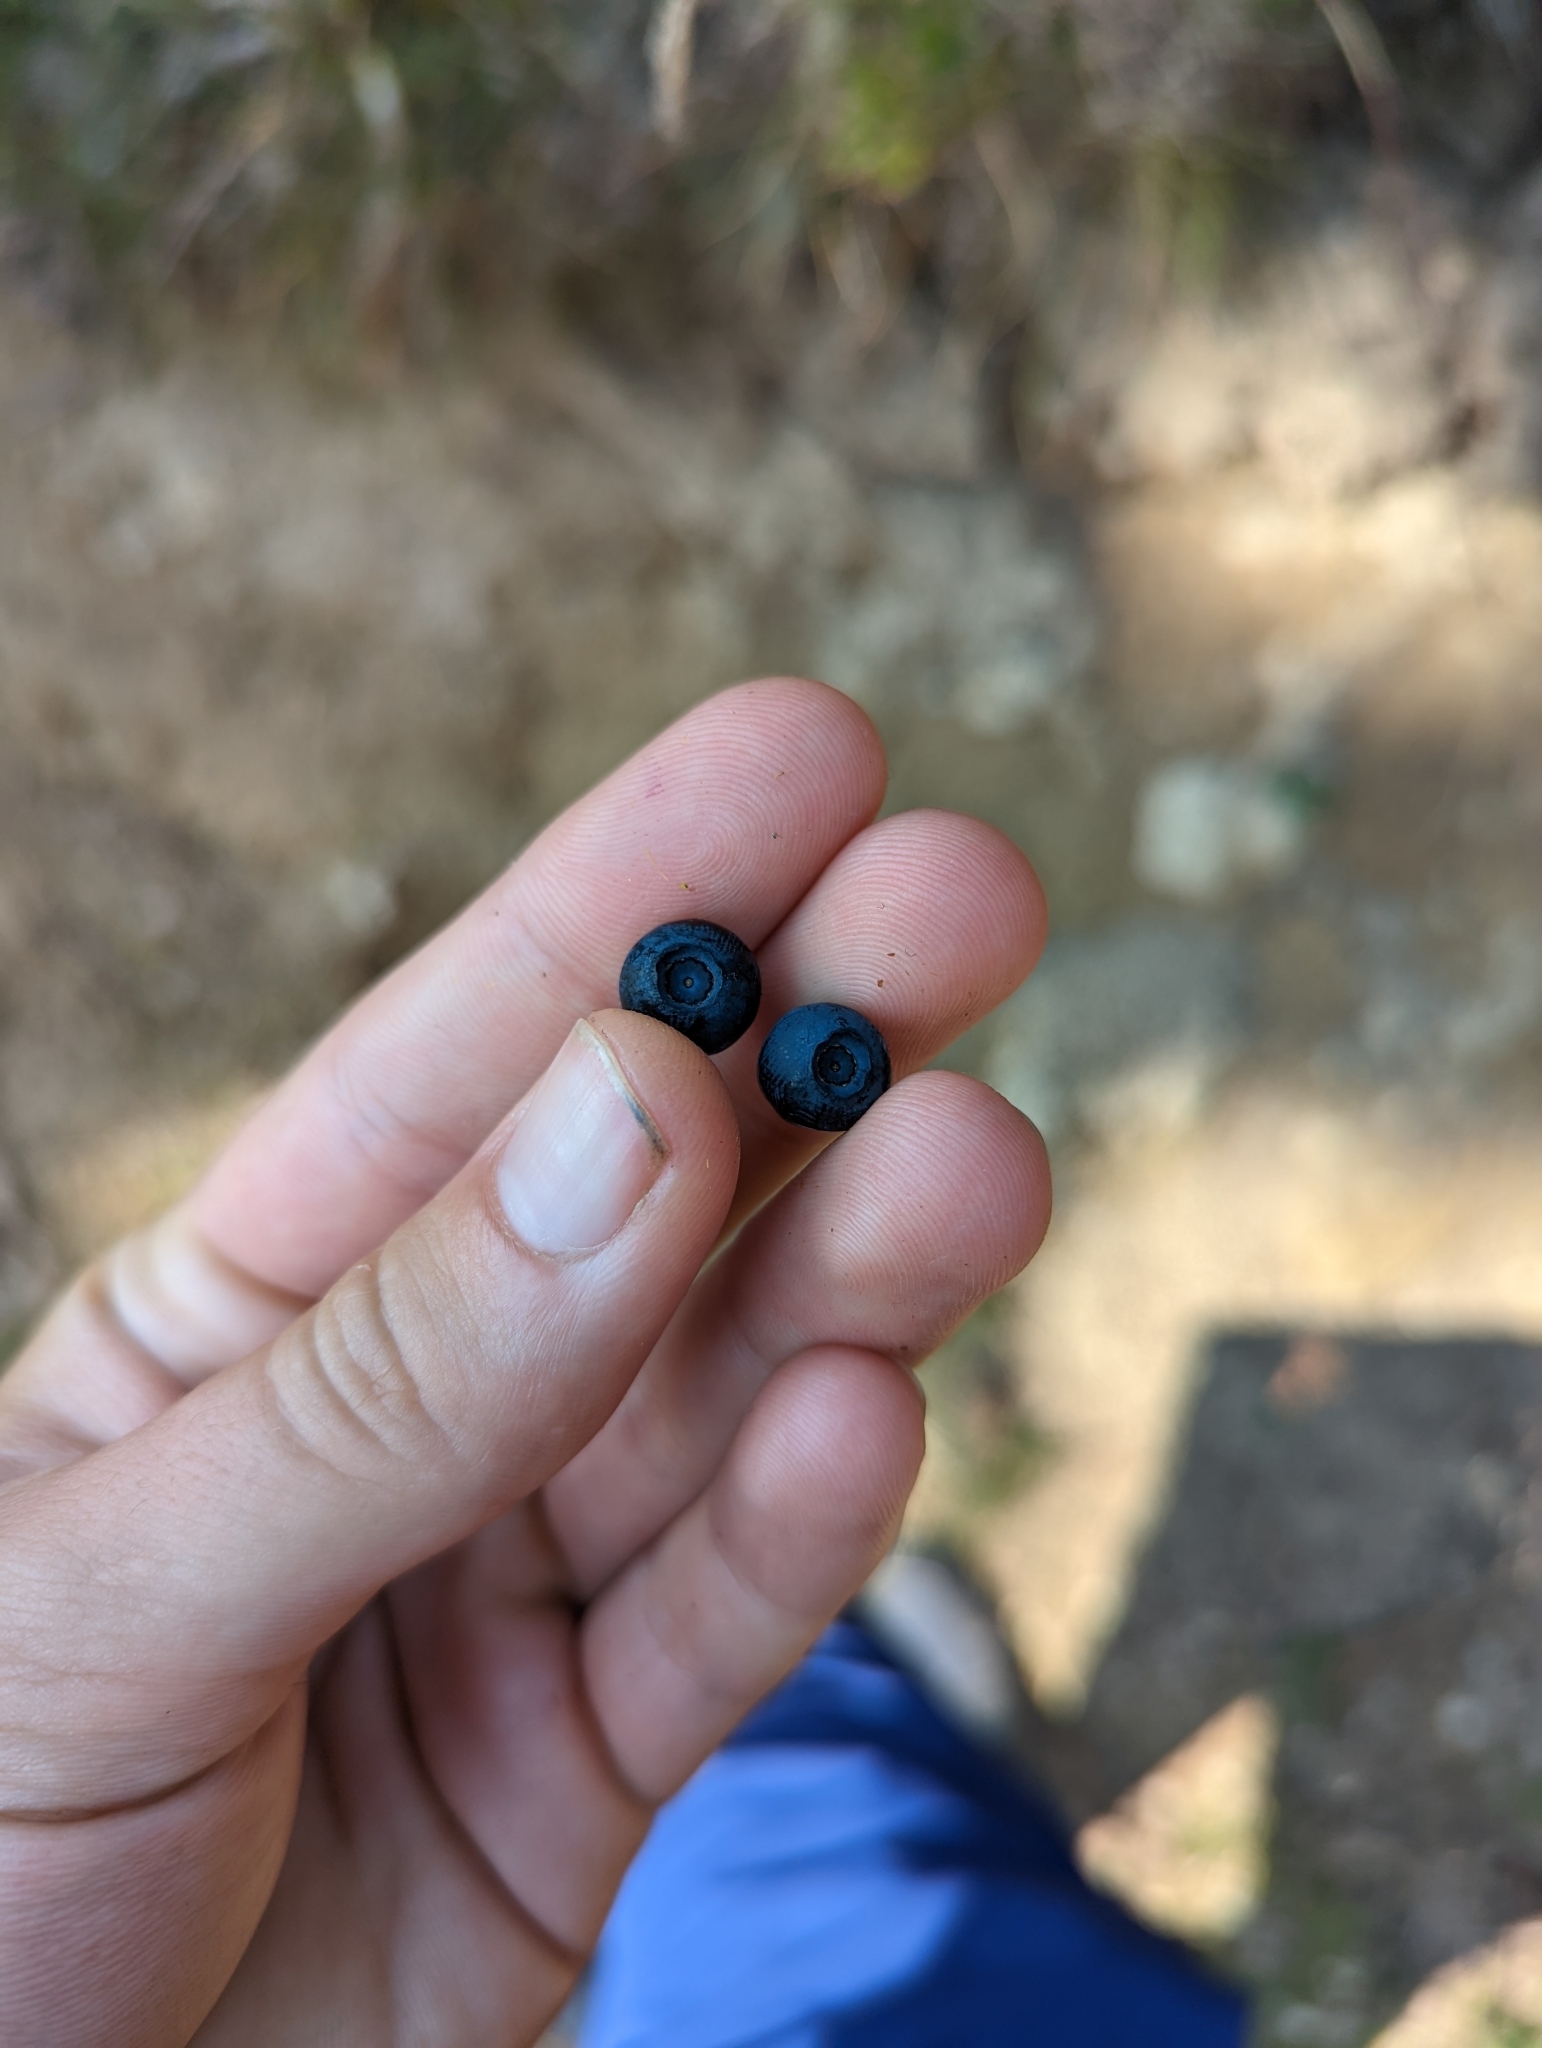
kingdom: Plantae
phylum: Tracheophyta
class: Magnoliopsida
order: Ericales
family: Ericaceae
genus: Vaccinium
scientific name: Vaccinium myrtillus
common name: Bilberry
